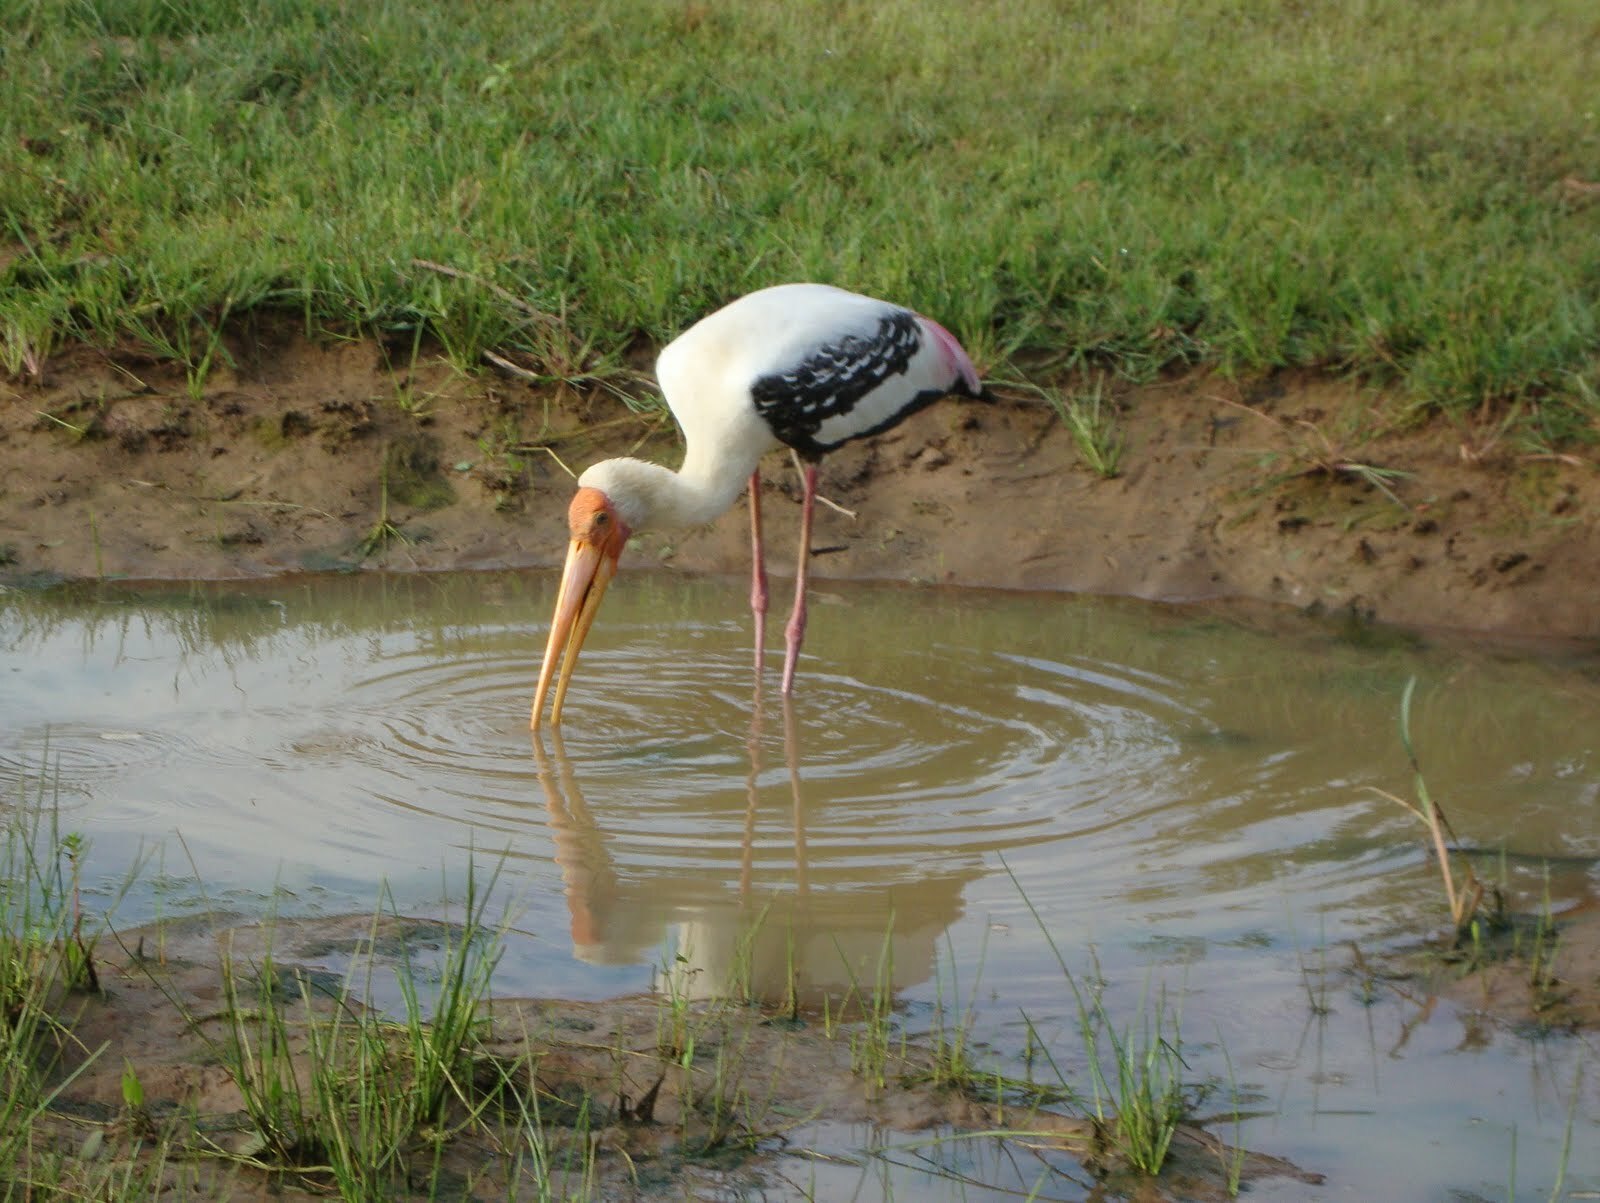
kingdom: Animalia
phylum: Chordata
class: Aves
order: Ciconiiformes
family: Ciconiidae
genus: Mycteria
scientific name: Mycteria leucocephala
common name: Painted stork
